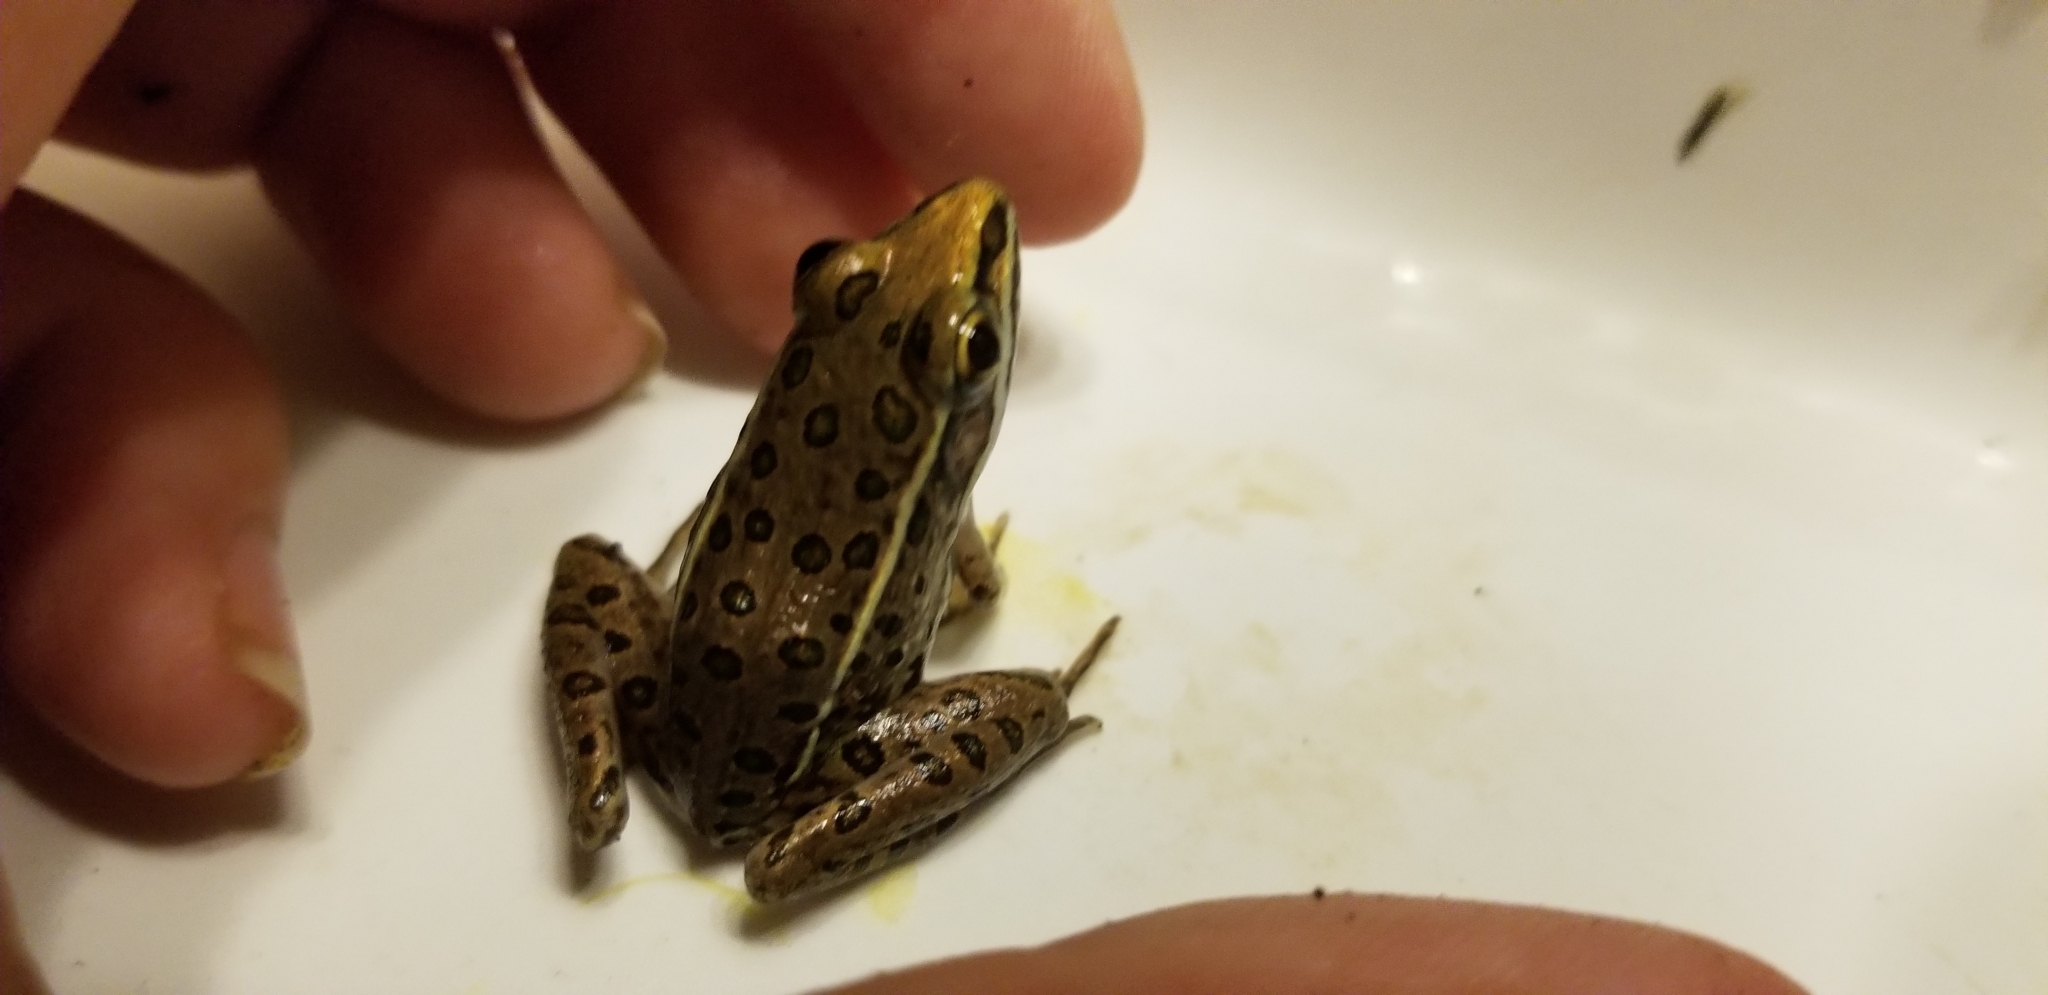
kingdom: Animalia
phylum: Chordata
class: Amphibia
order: Anura
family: Ranidae
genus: Lithobates
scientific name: Lithobates sphenocephalus
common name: Southern leopard frog
